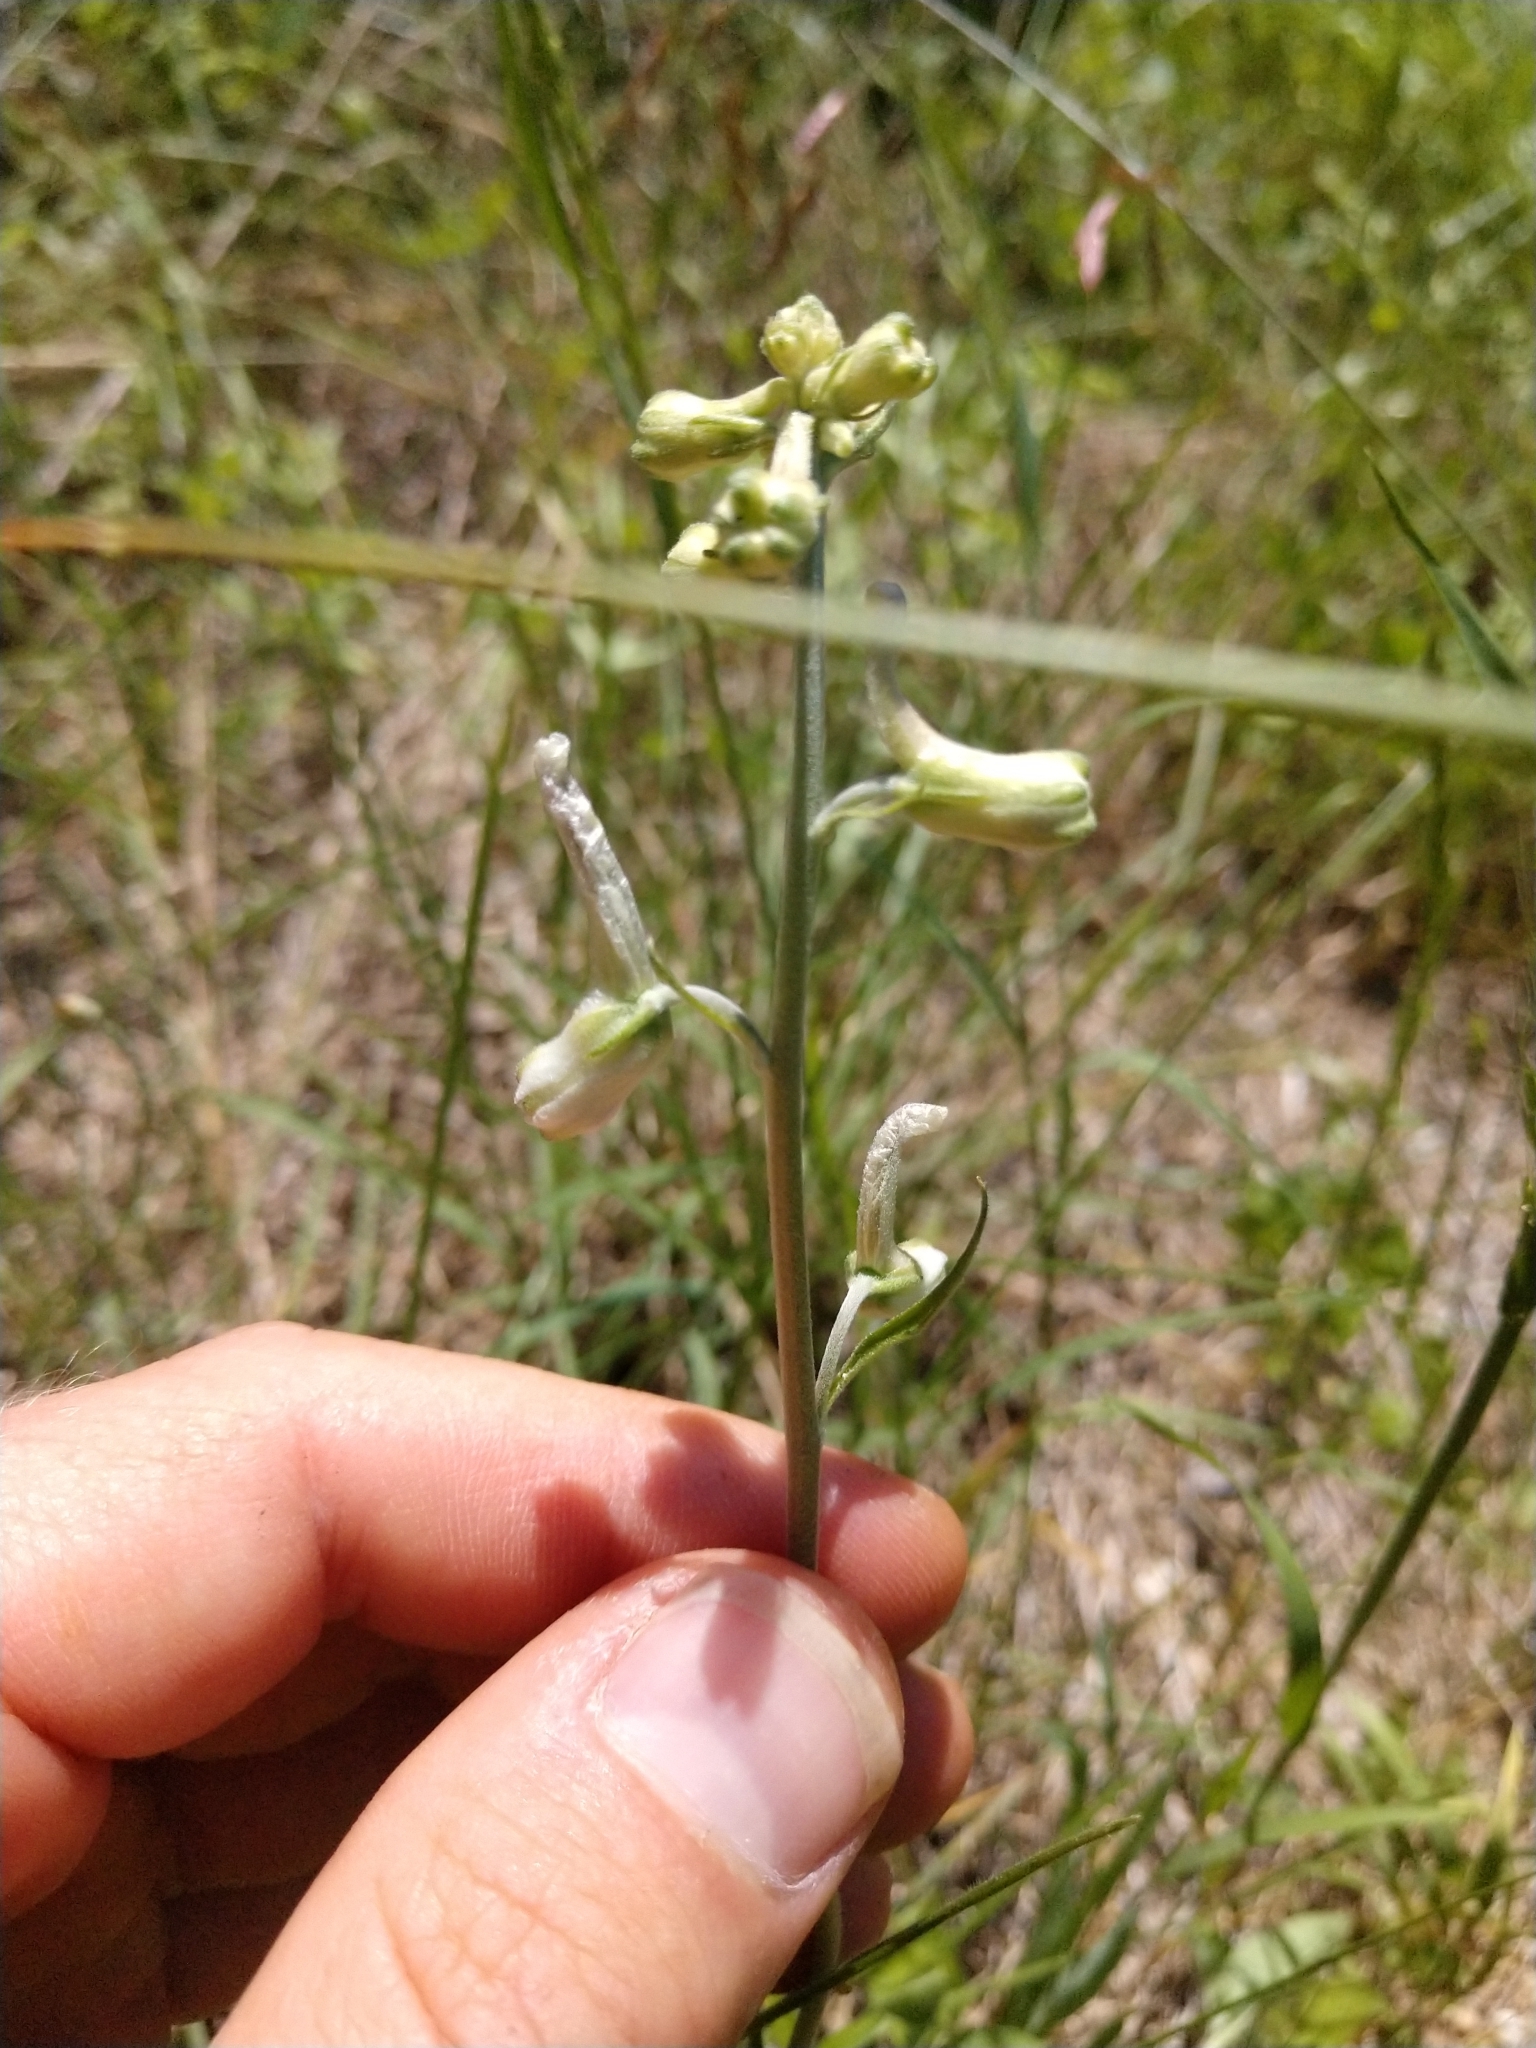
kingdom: Plantae
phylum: Tracheophyta
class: Magnoliopsida
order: Ranunculales
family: Ranunculaceae
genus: Delphinium
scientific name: Delphinium carolinianum
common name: Carolina larkspur
